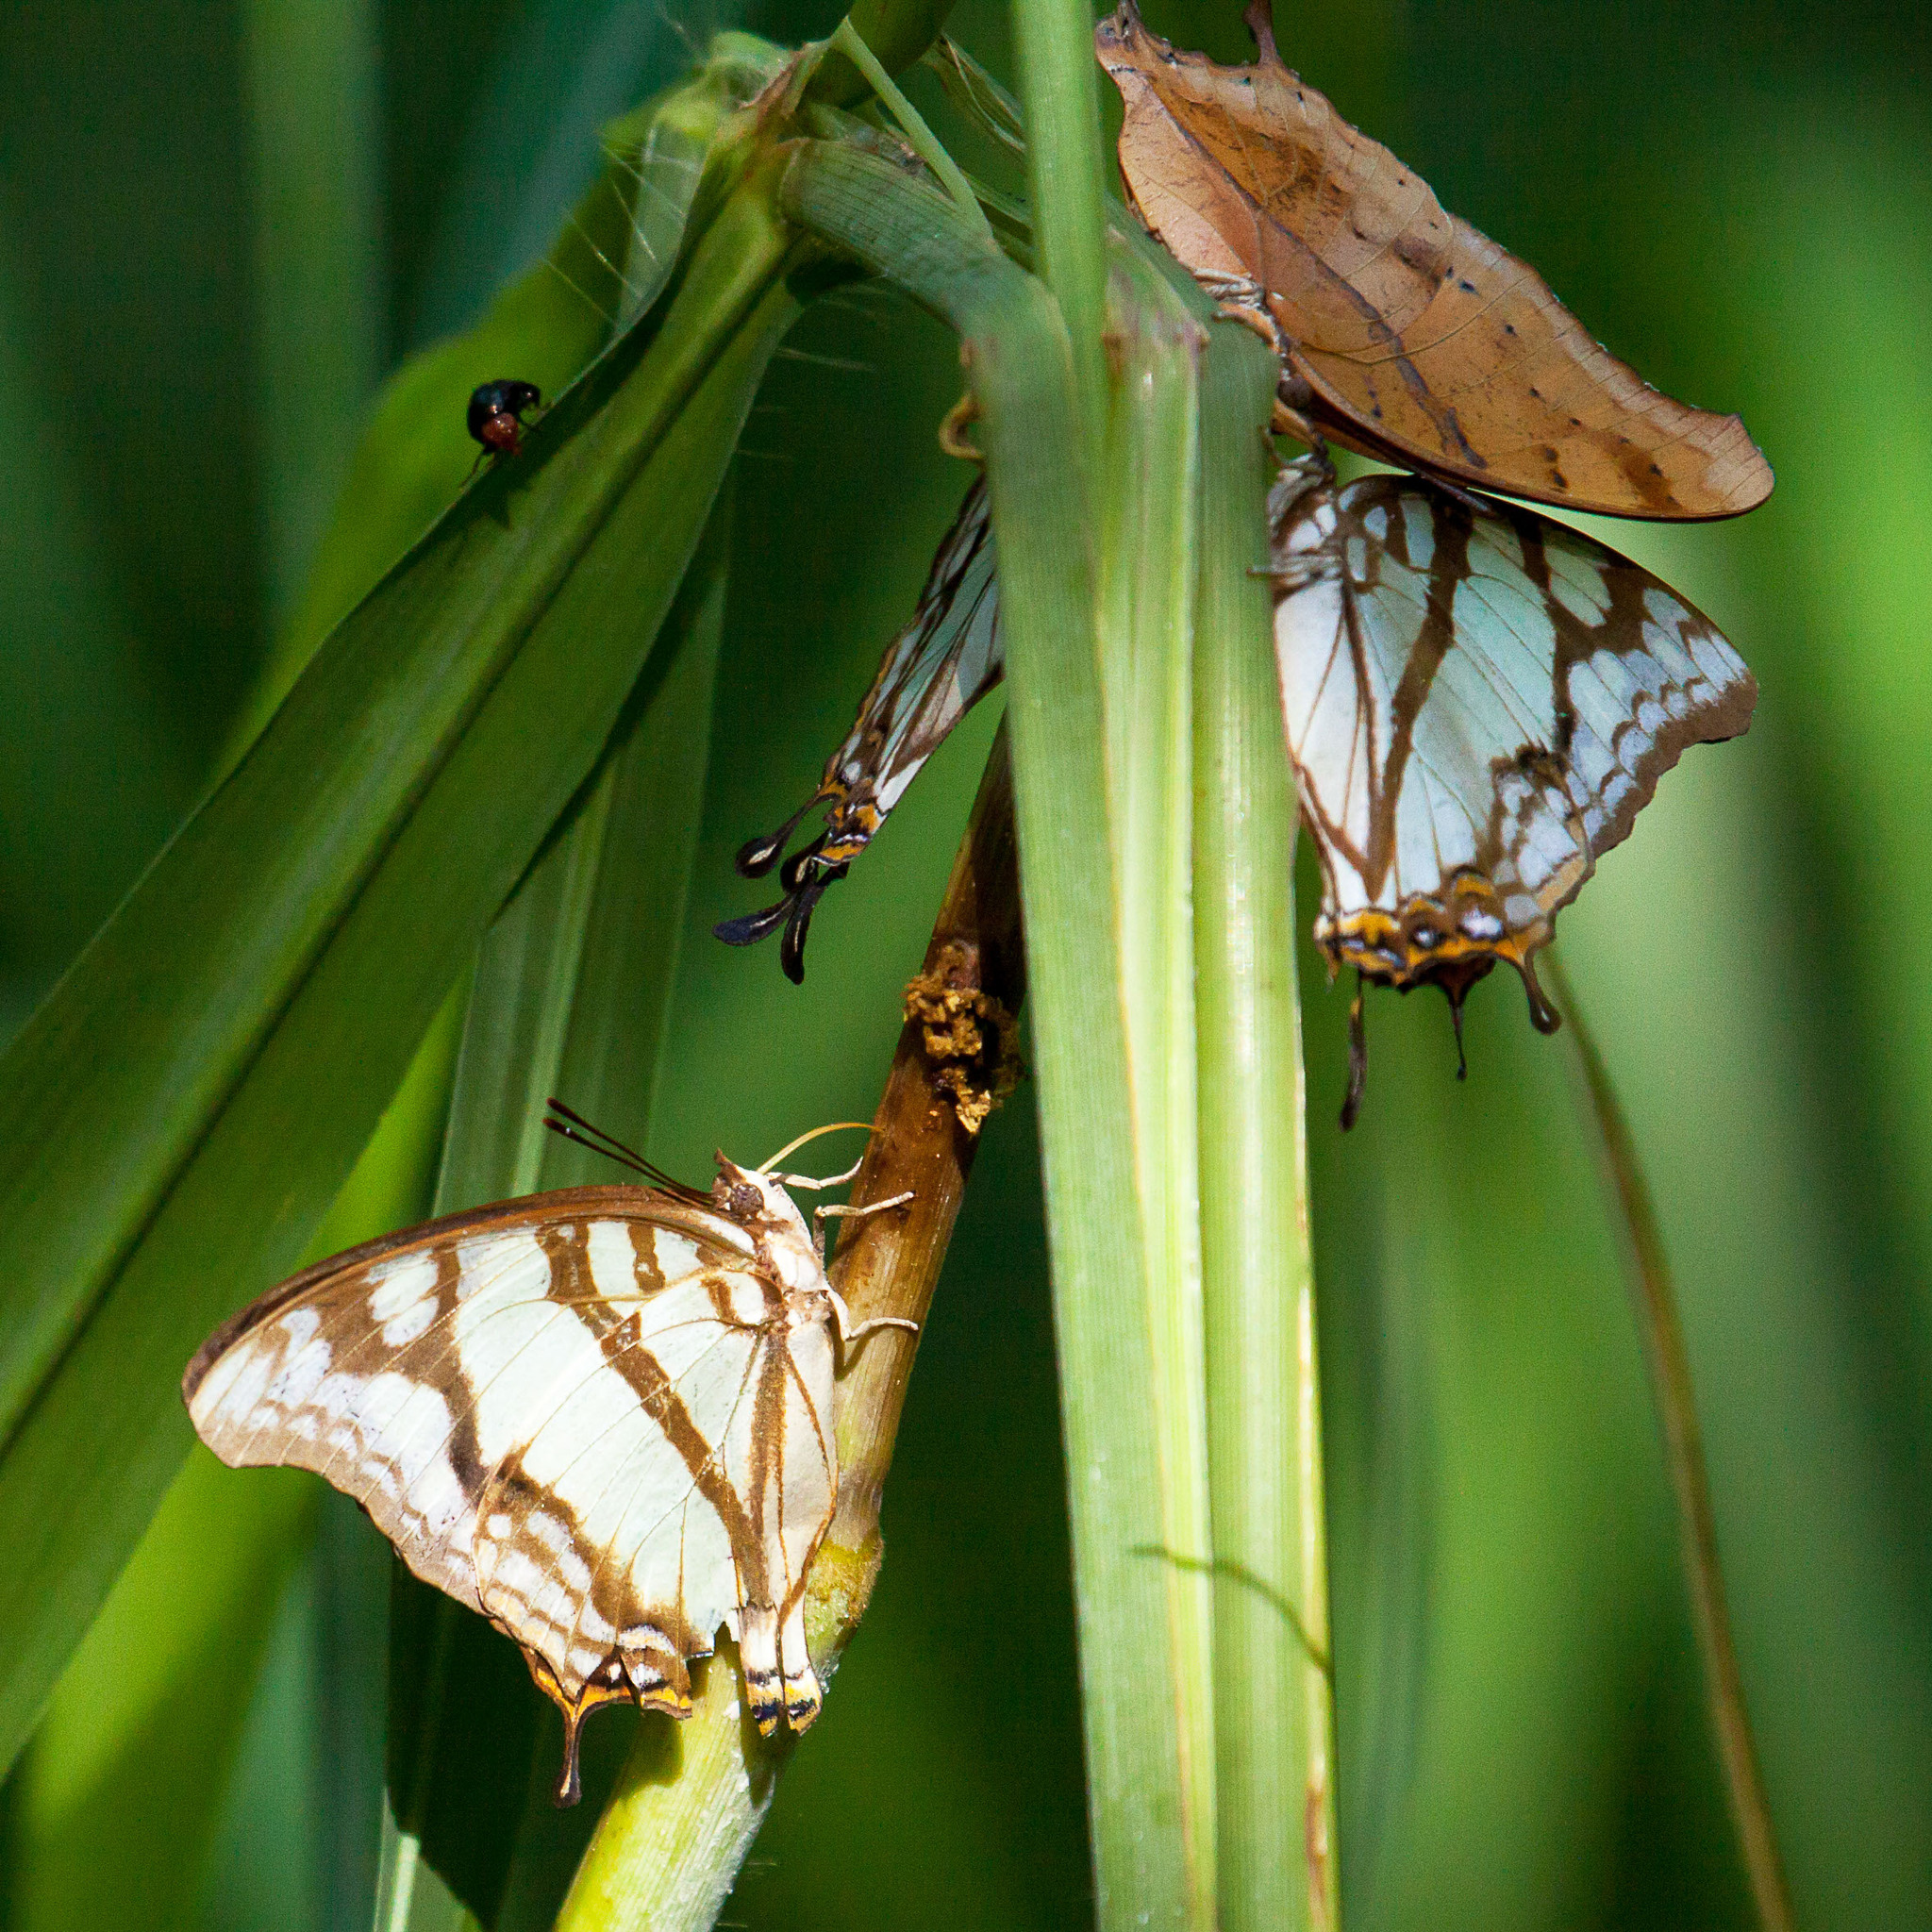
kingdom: Animalia
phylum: Arthropoda
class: Insecta
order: Lepidoptera
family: Nymphalidae
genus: Polyura
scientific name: Polyura
